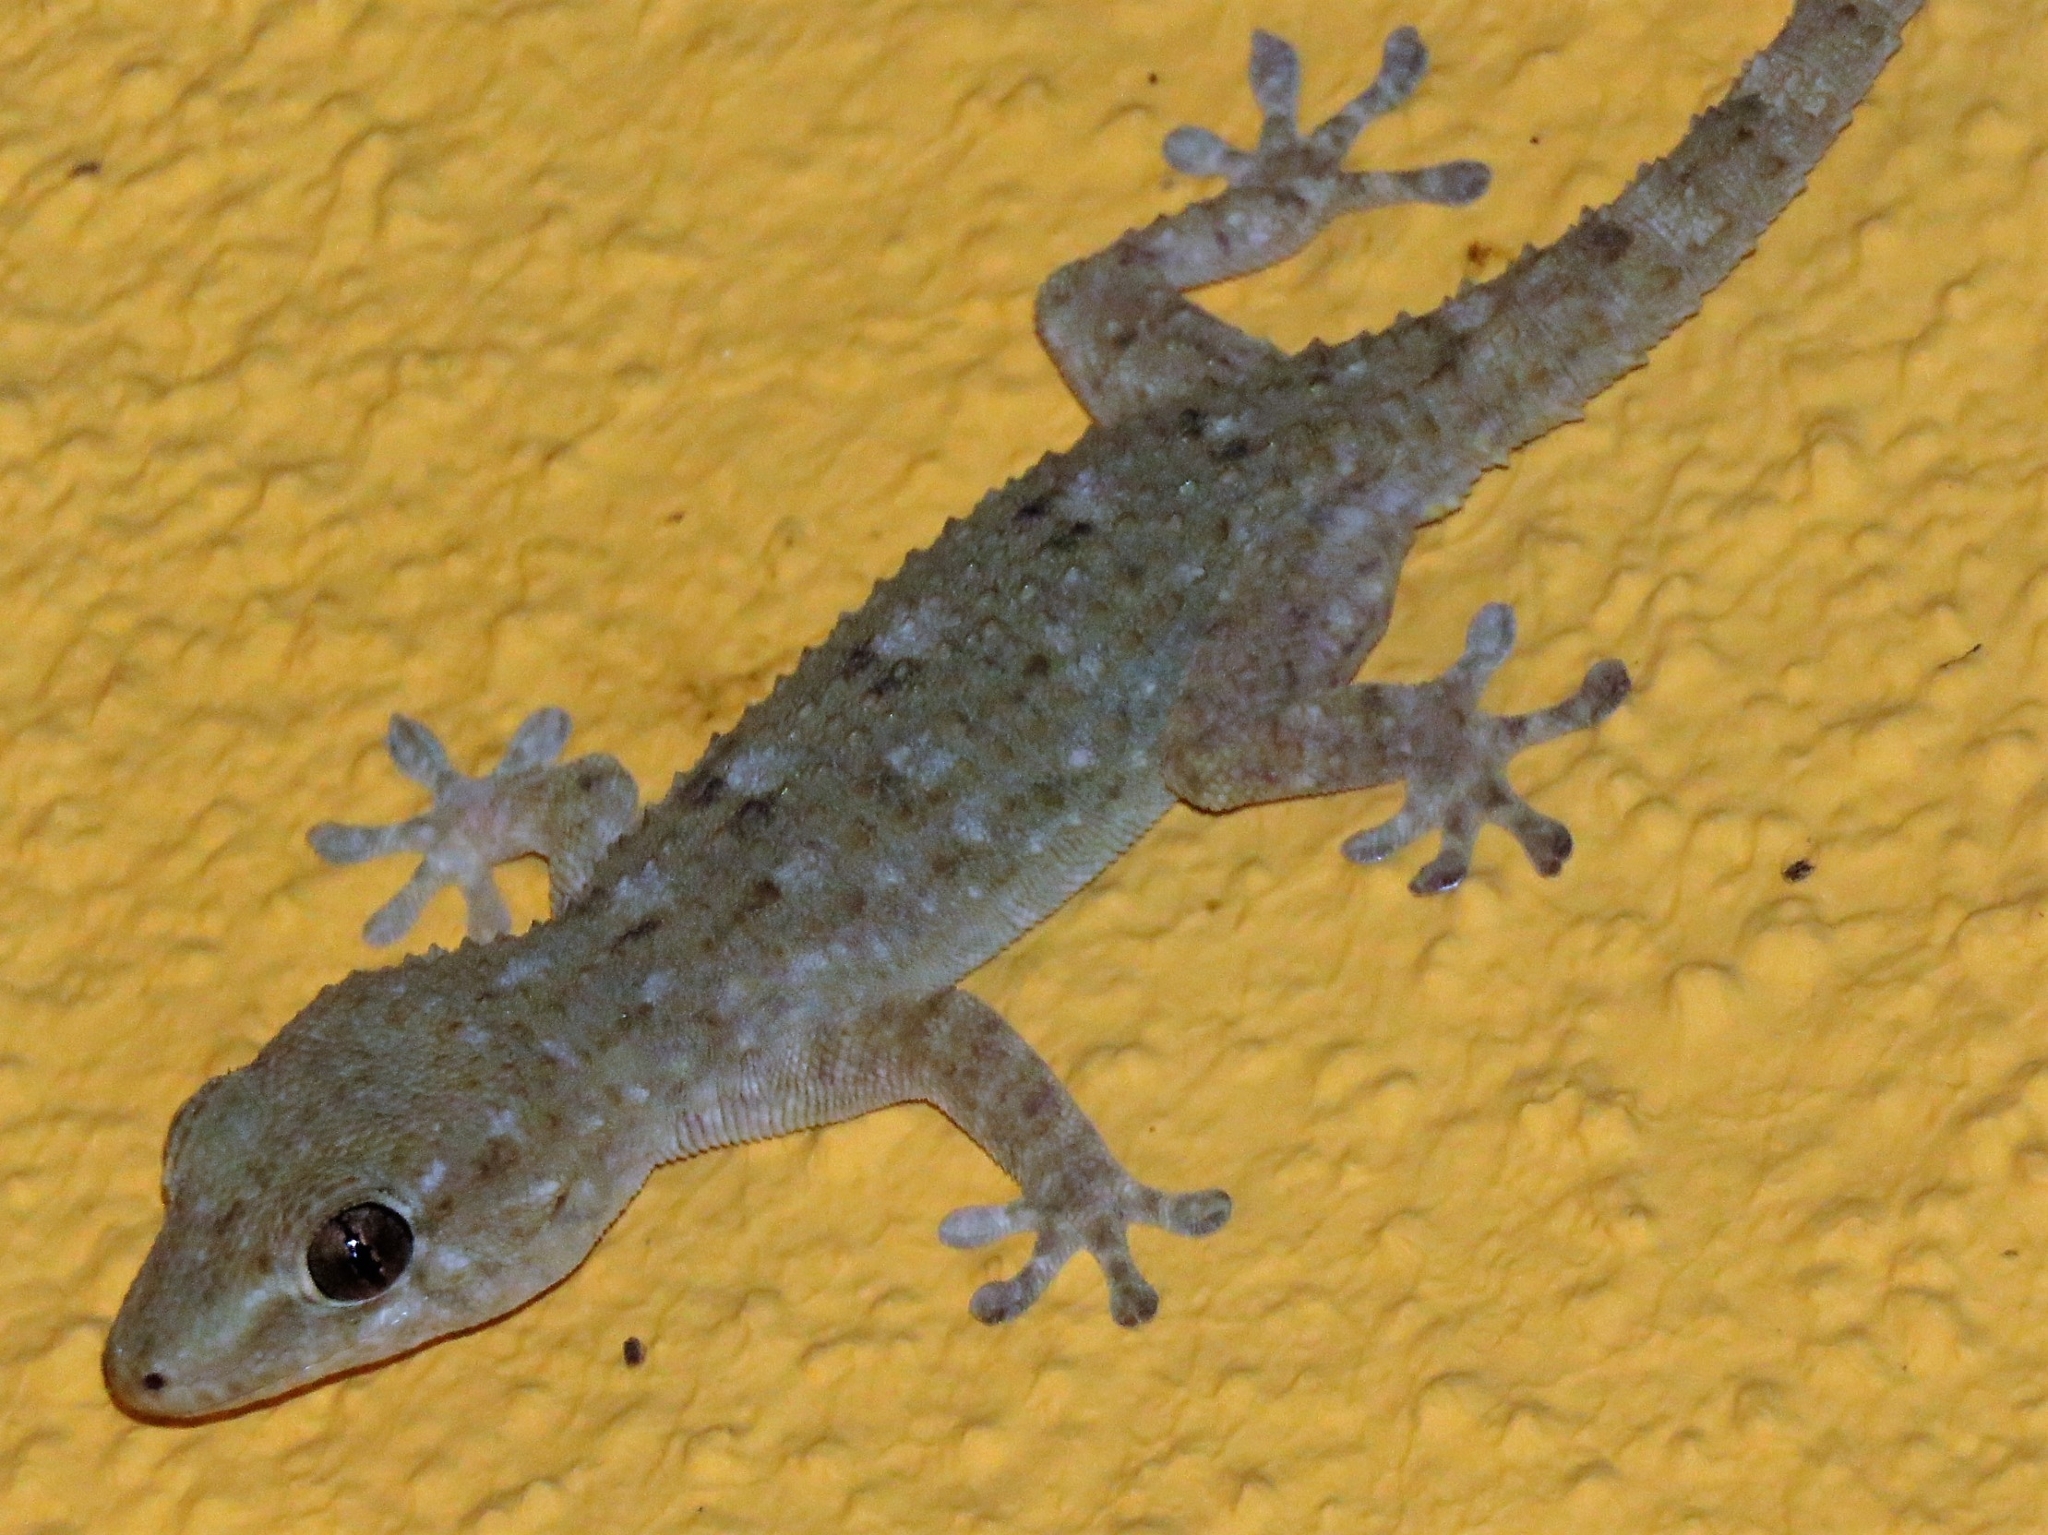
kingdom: Animalia
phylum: Chordata
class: Squamata
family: Phyllodactylidae
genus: Tarentola
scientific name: Tarentola delalandii
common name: Tenerife wall gecko
